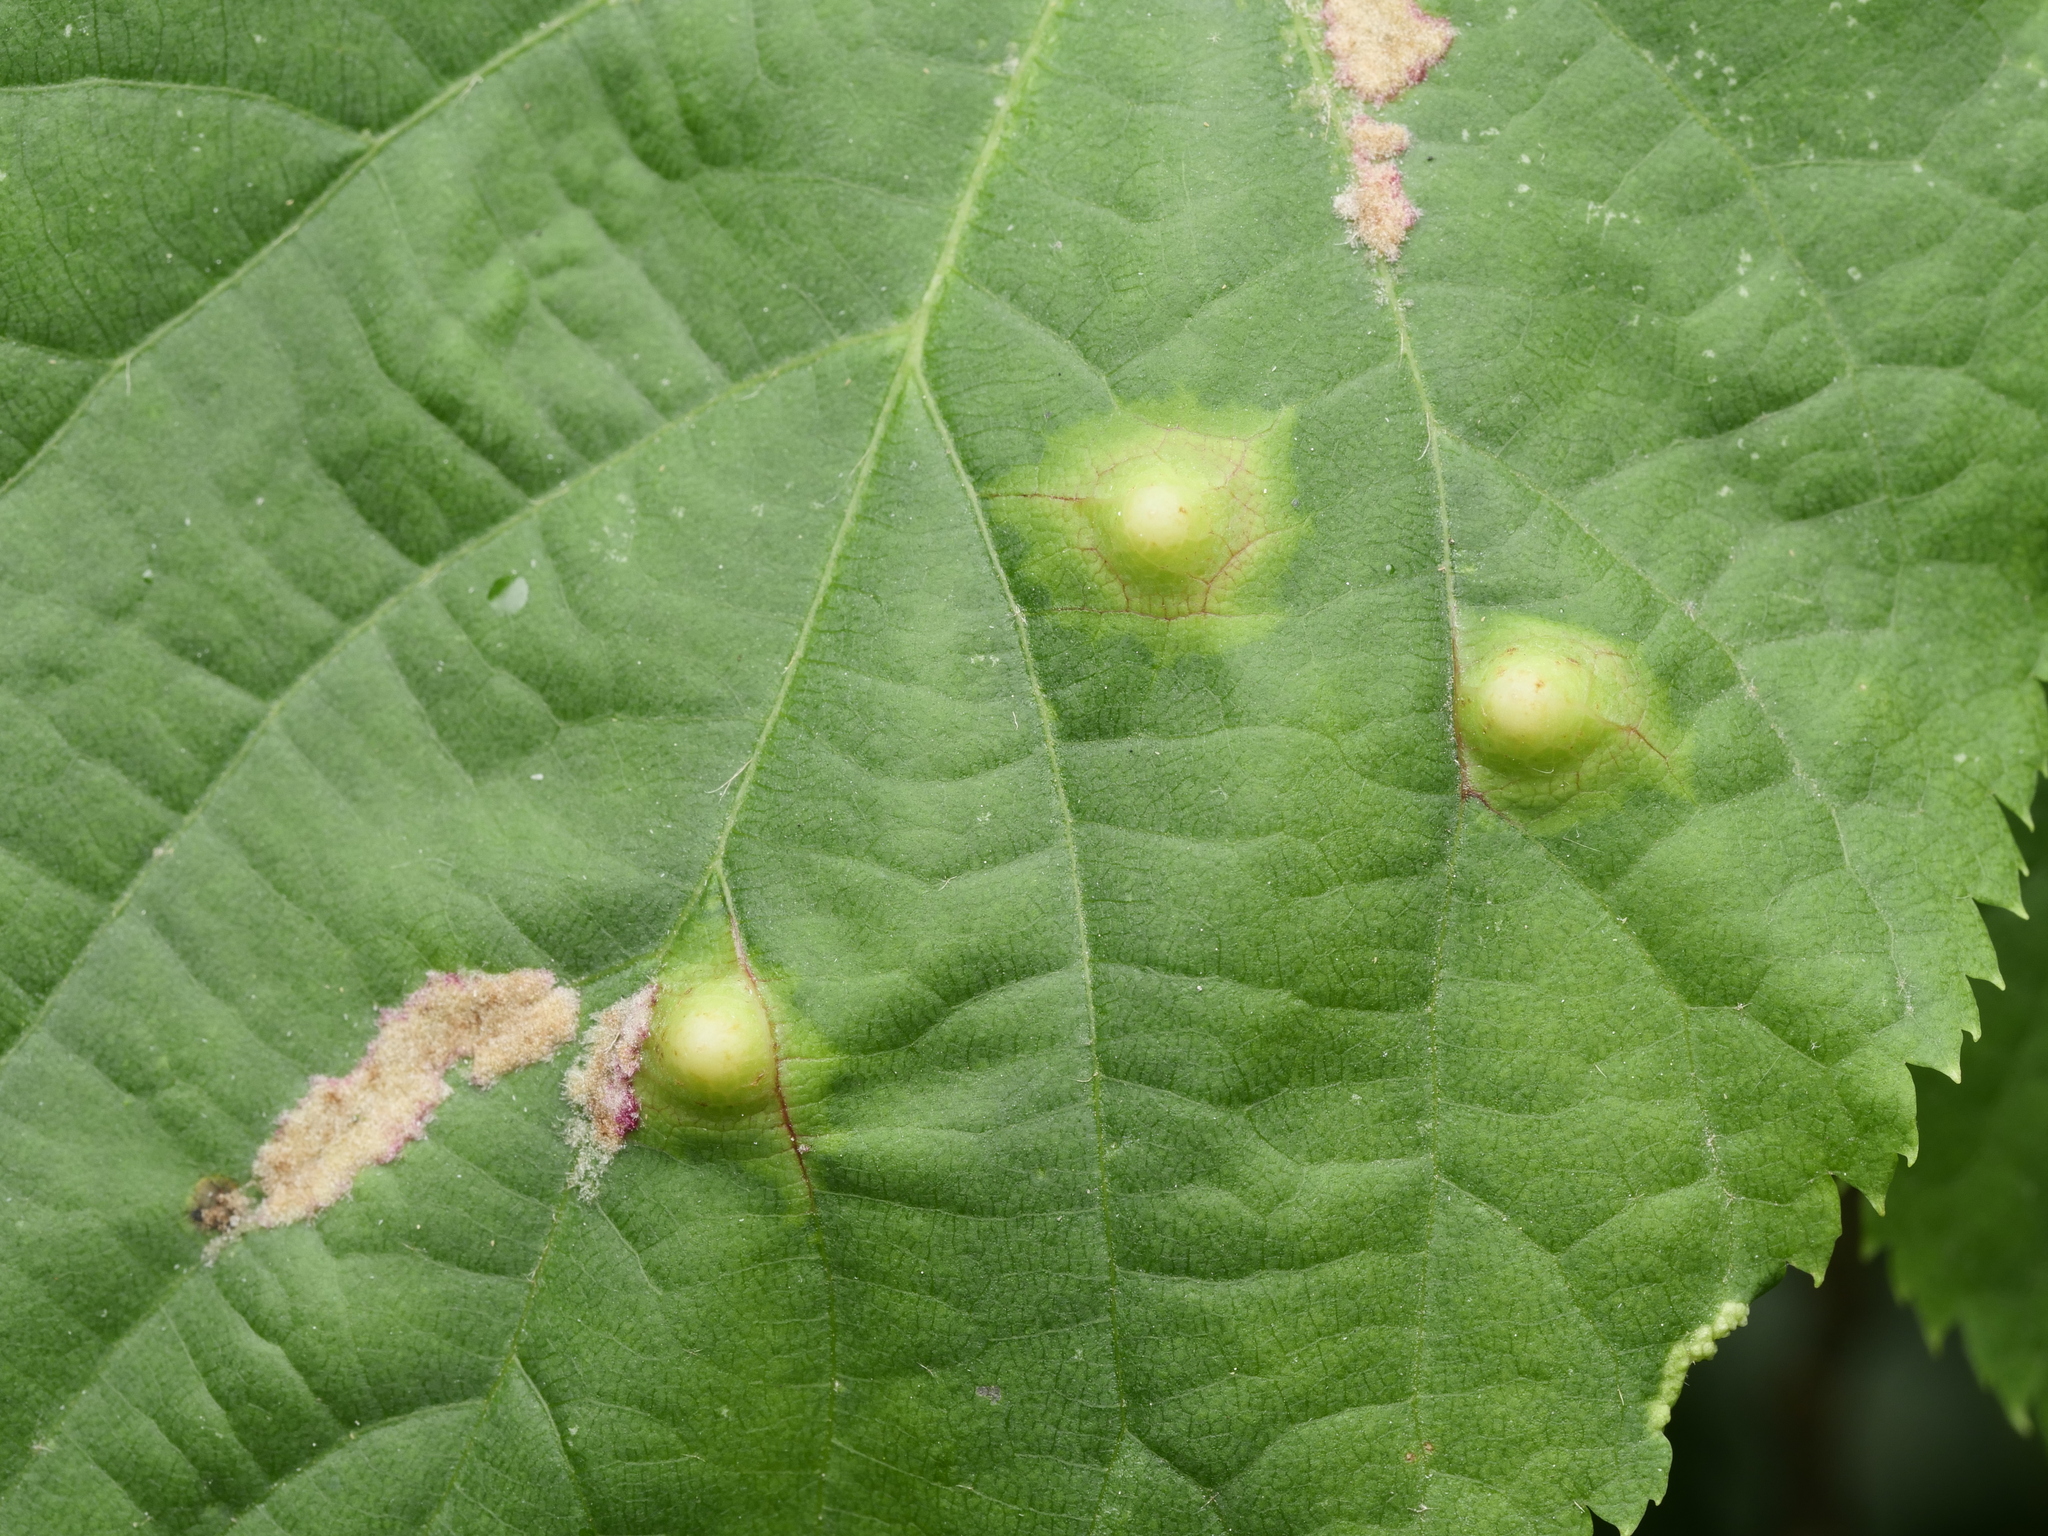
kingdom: Animalia
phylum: Arthropoda
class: Insecta
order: Diptera
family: Cecidomyiidae
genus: Didymomyia
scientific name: Didymomyia tiliacea
